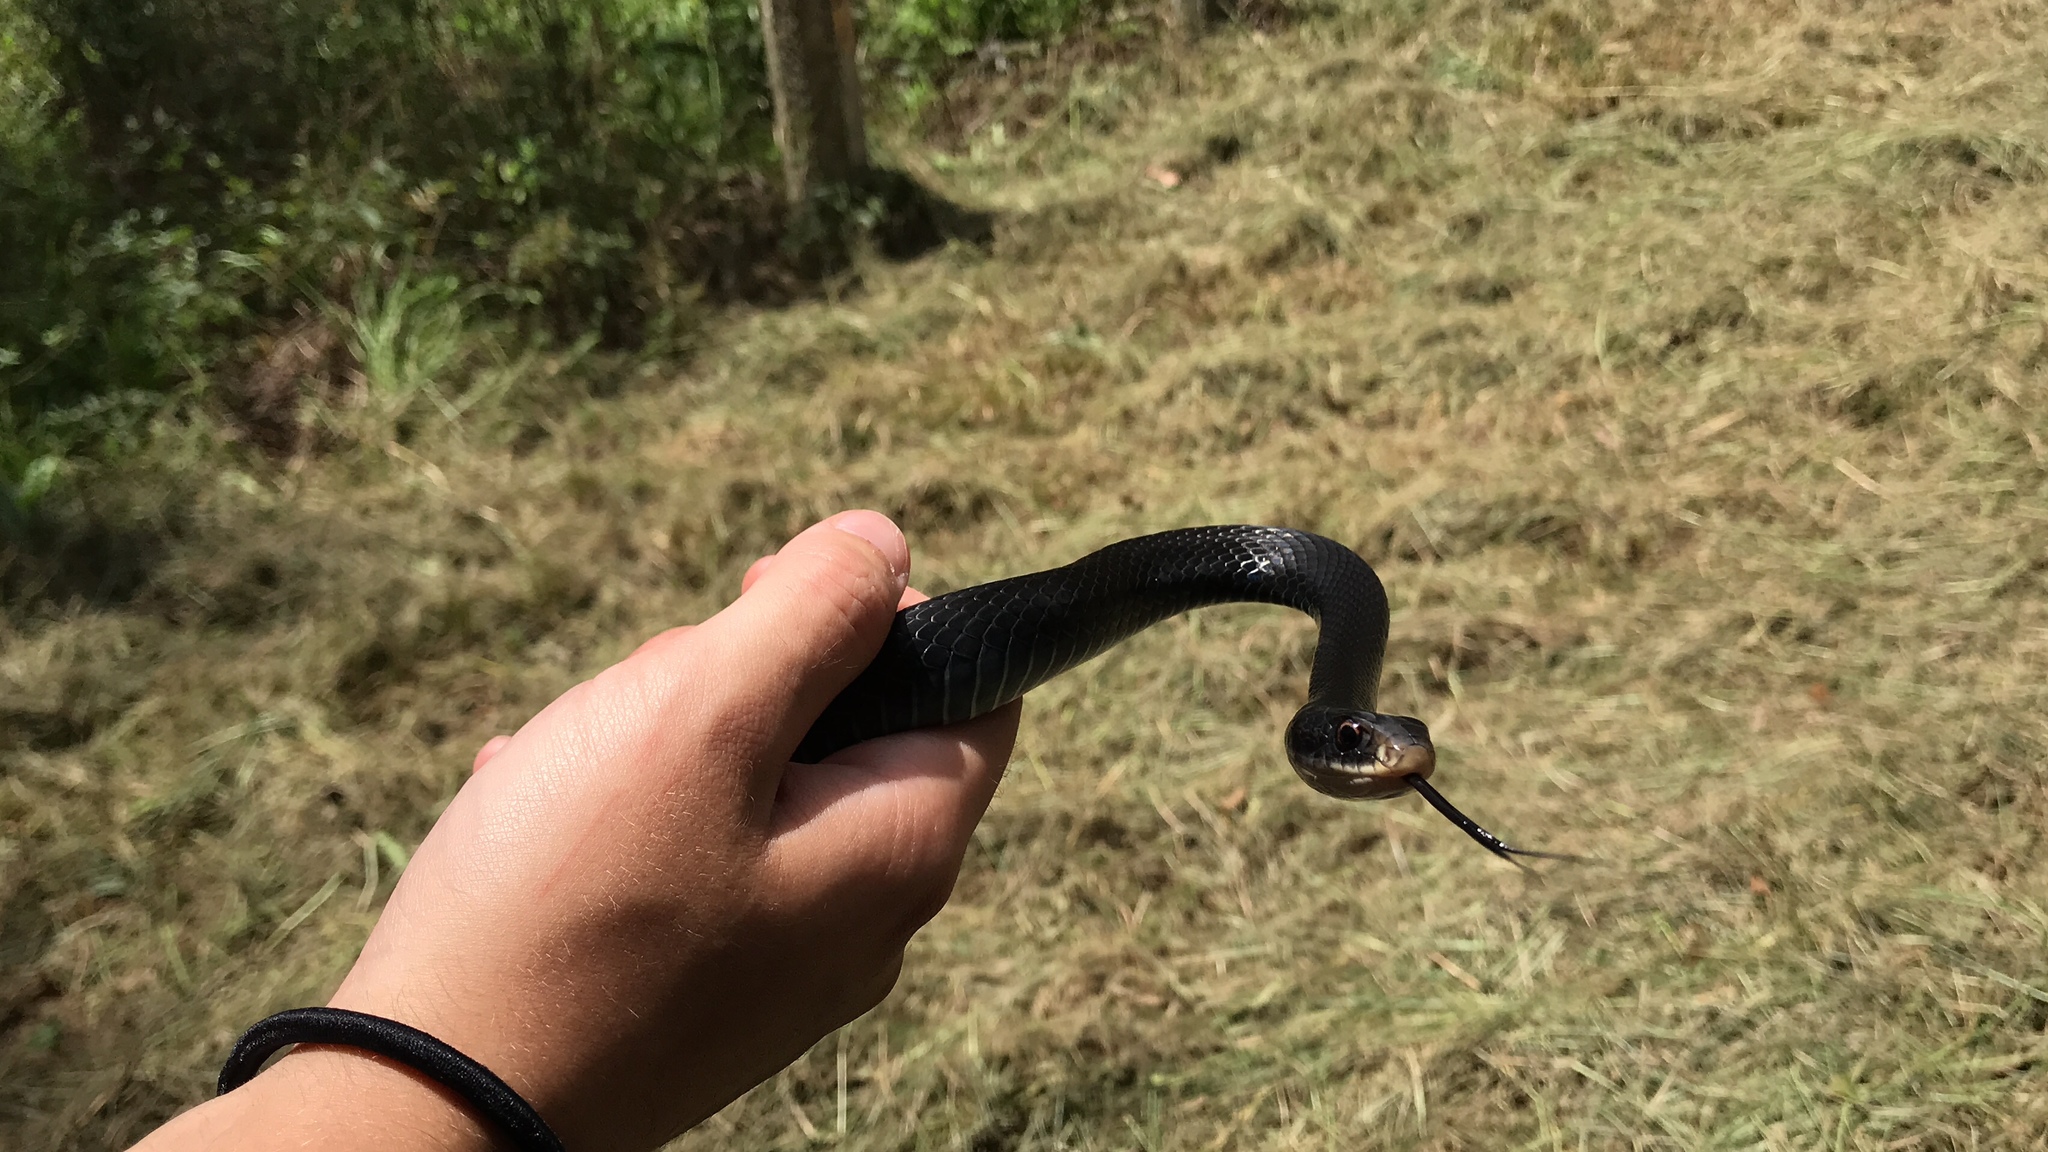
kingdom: Animalia
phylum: Chordata
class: Squamata
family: Colubridae
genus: Coluber
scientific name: Coluber constrictor
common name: Eastern racer
